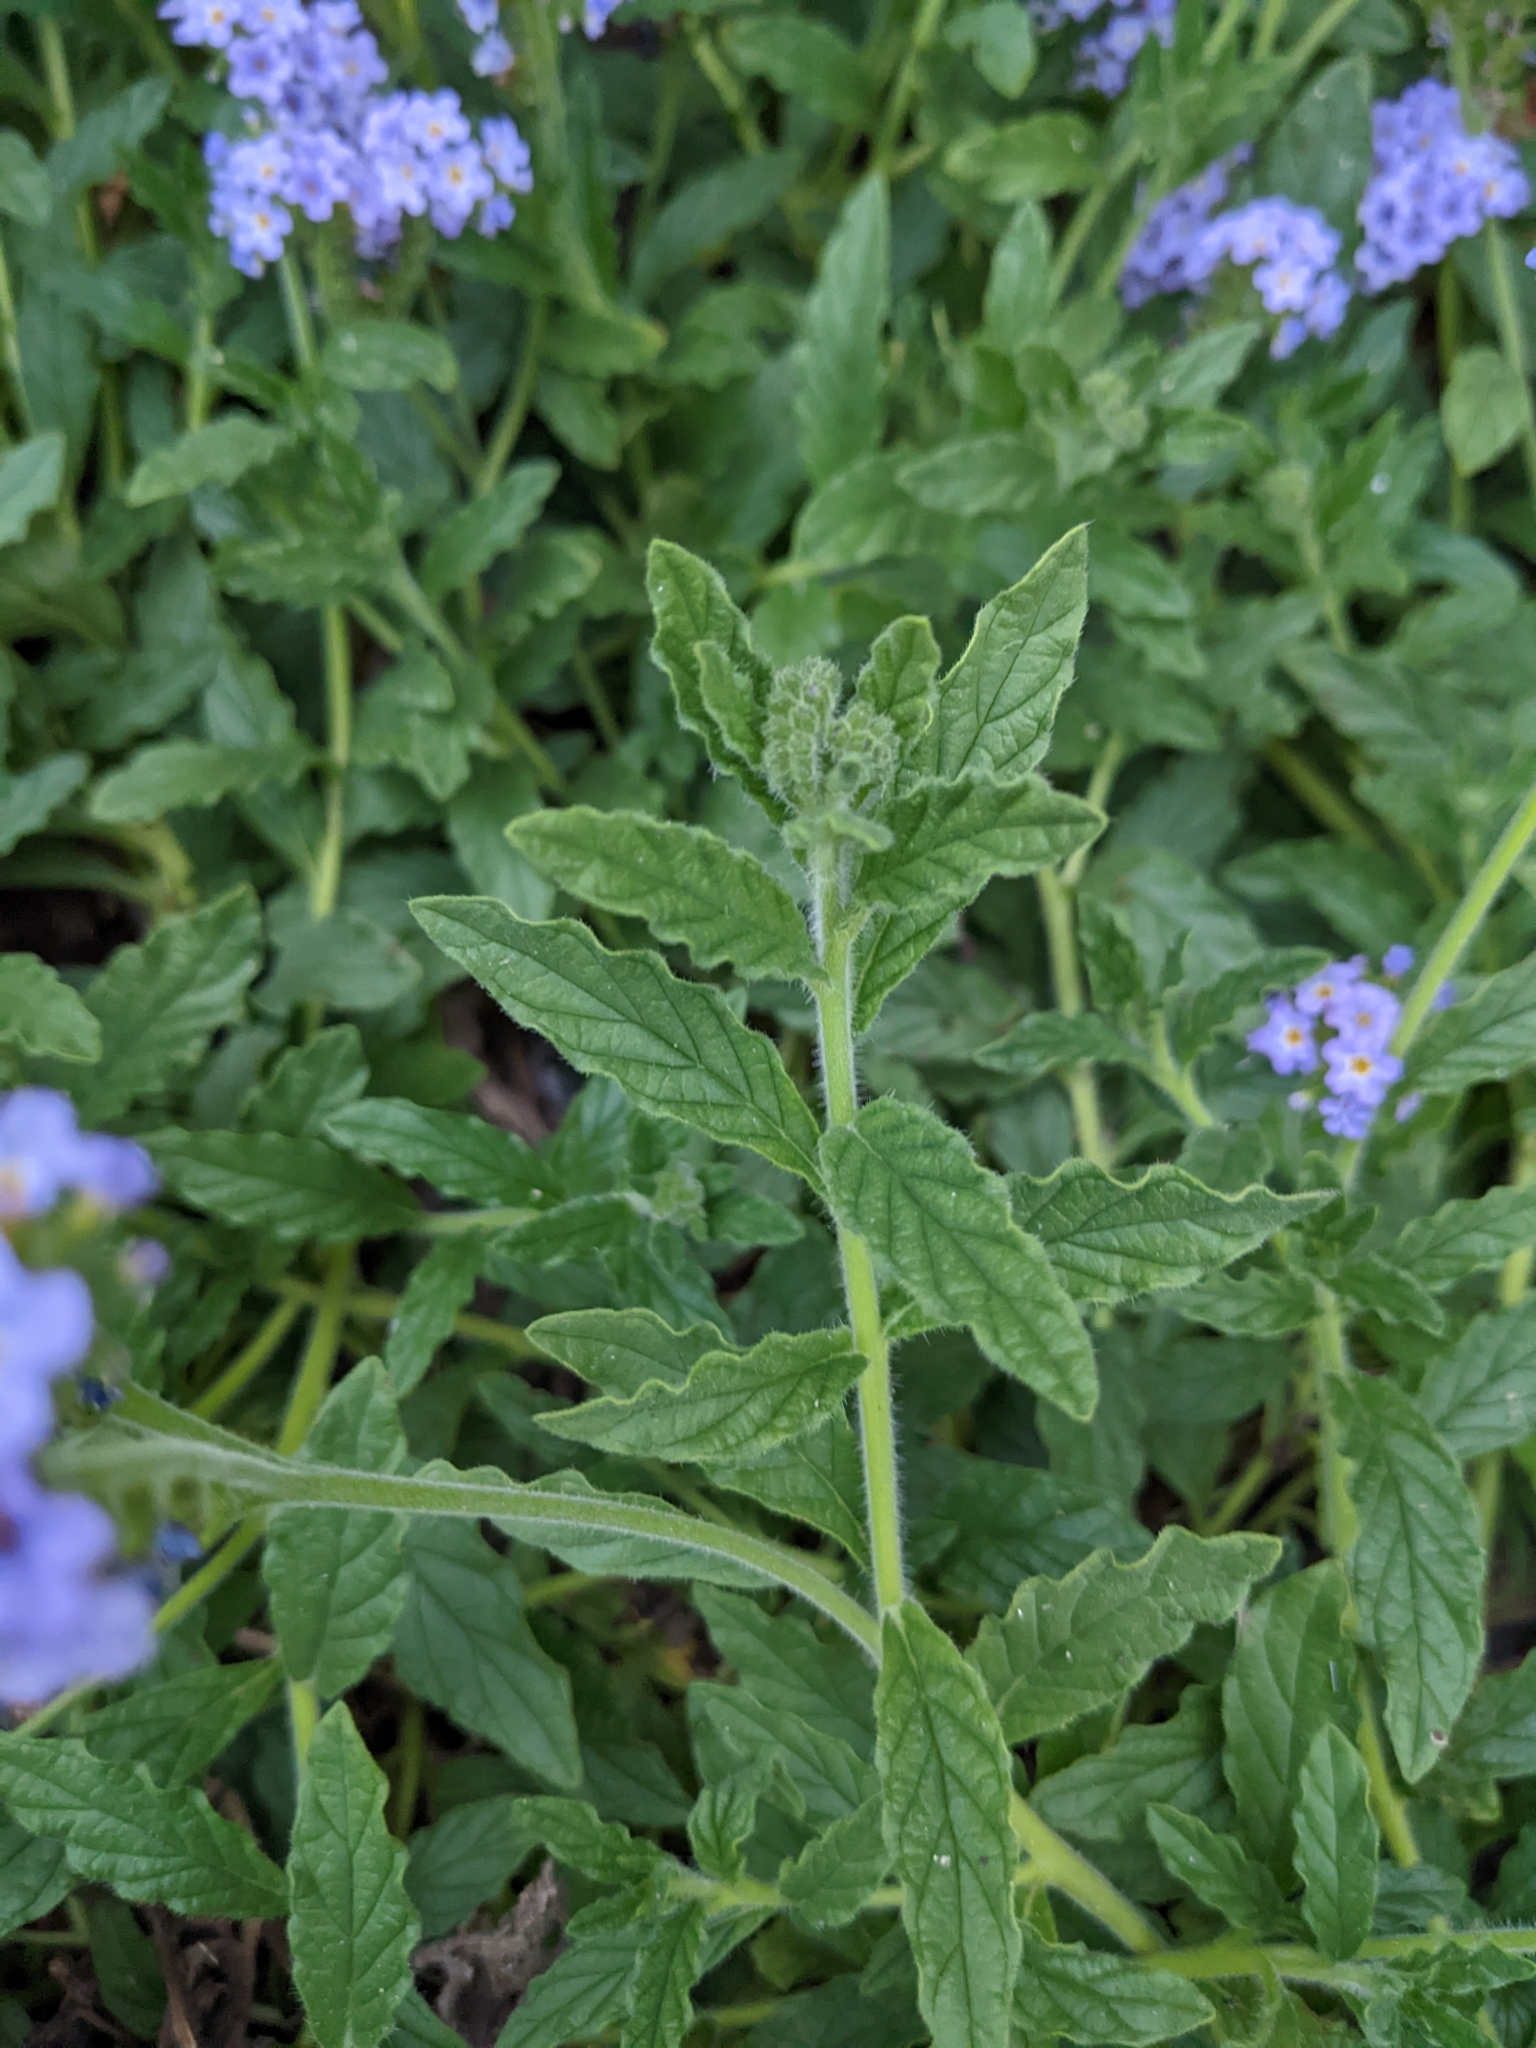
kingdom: Plantae
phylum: Tracheophyta
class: Magnoliopsida
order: Boraginales
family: Heliotropiaceae
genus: Heliotropium
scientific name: Heliotropium amplexicaule
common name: Clasping heliotrope
